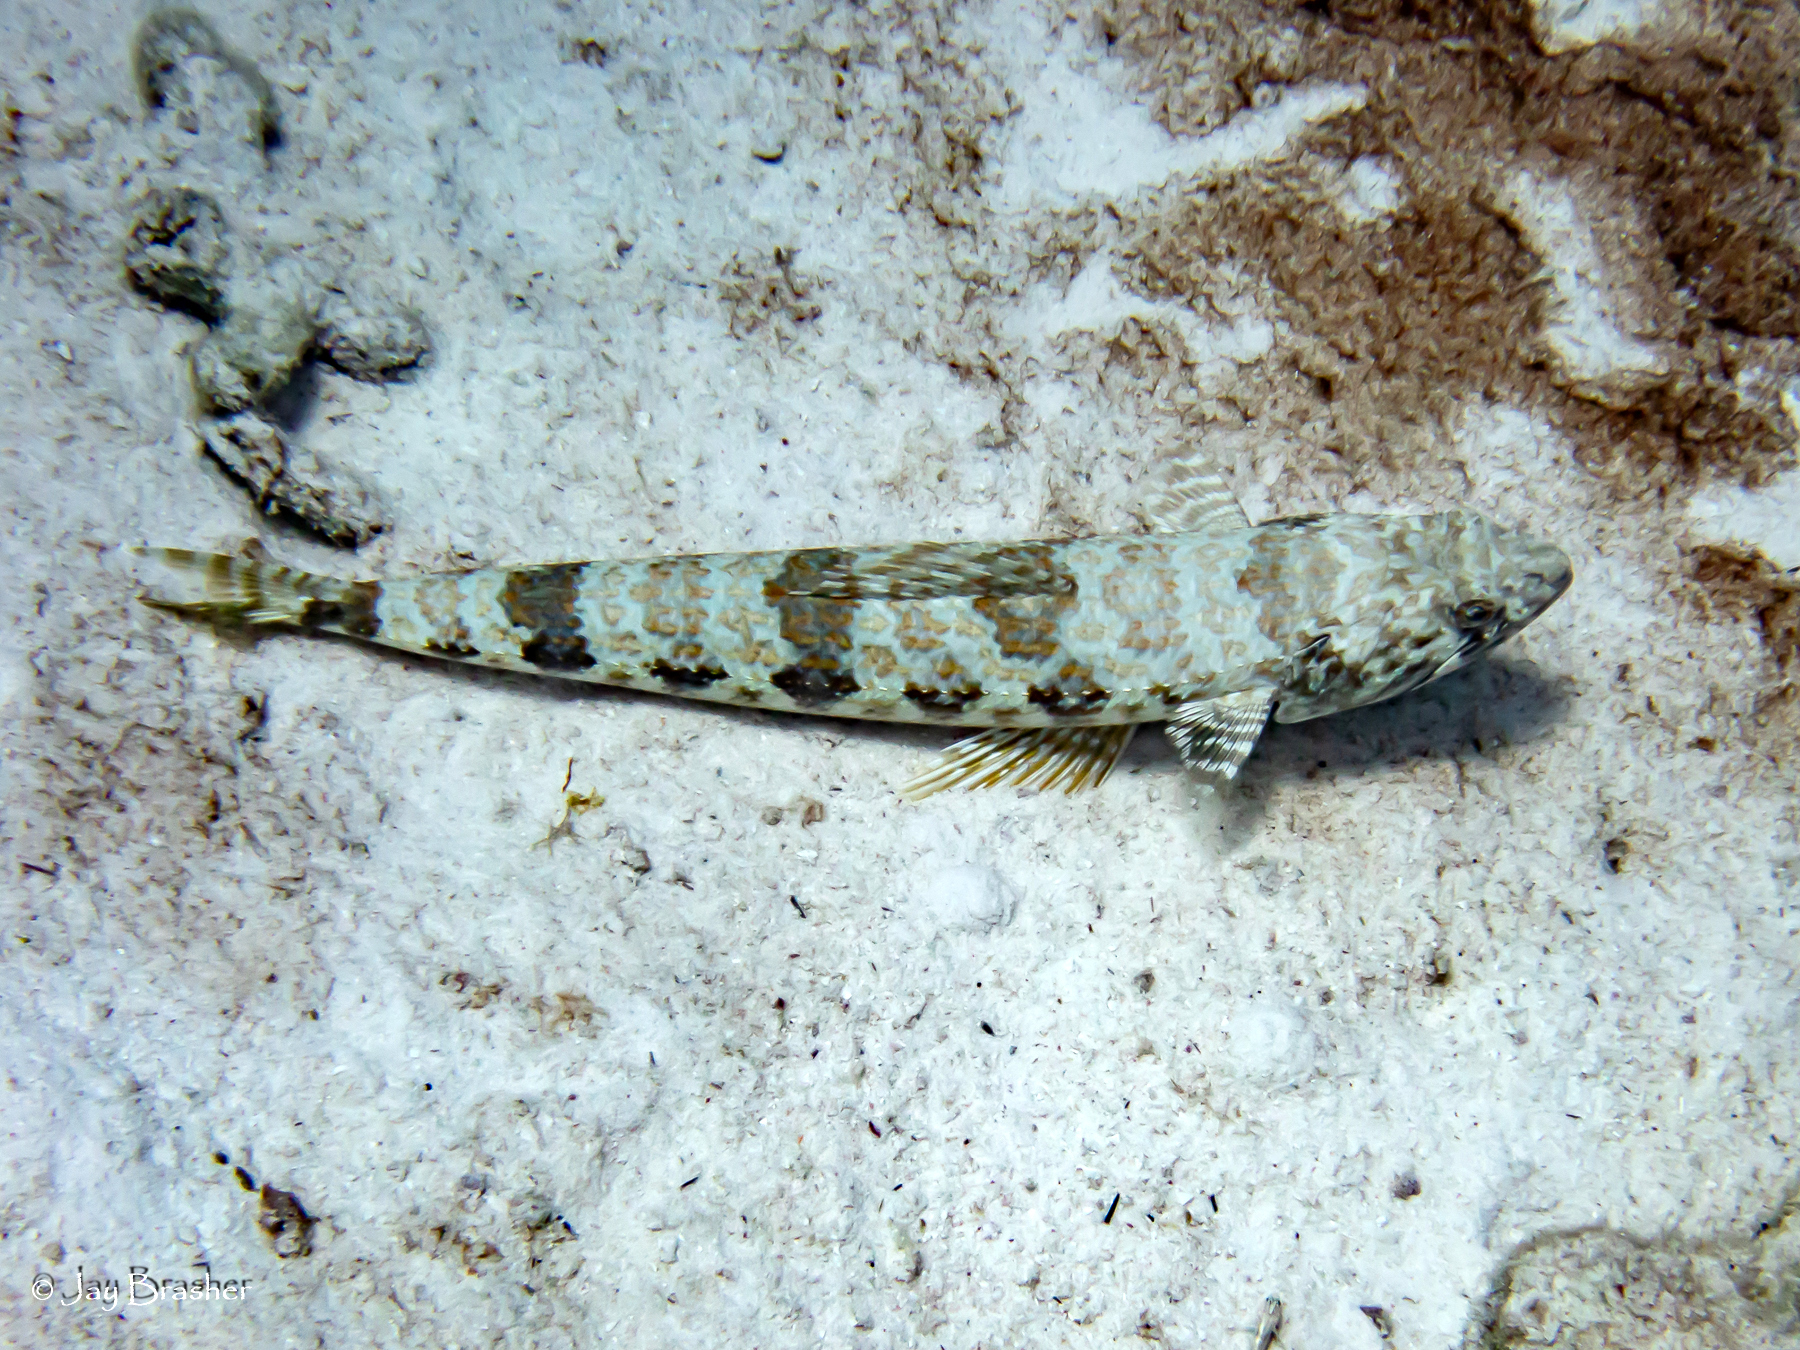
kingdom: Animalia
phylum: Chordata
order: Aulopiformes
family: Synodontidae
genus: Synodus
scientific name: Synodus intermedius
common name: Sand diver
